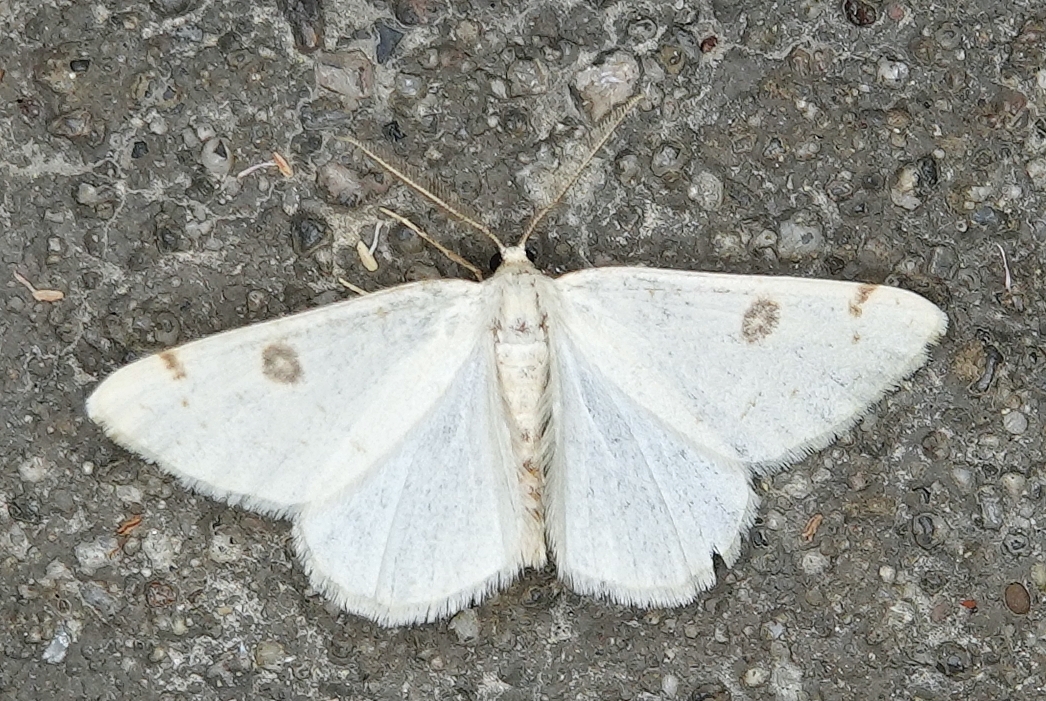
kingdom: Animalia
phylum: Arthropoda
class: Insecta
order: Lepidoptera
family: Geometridae
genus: Hesperumia
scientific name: Hesperumia sulphuraria
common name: Sulphur moth
